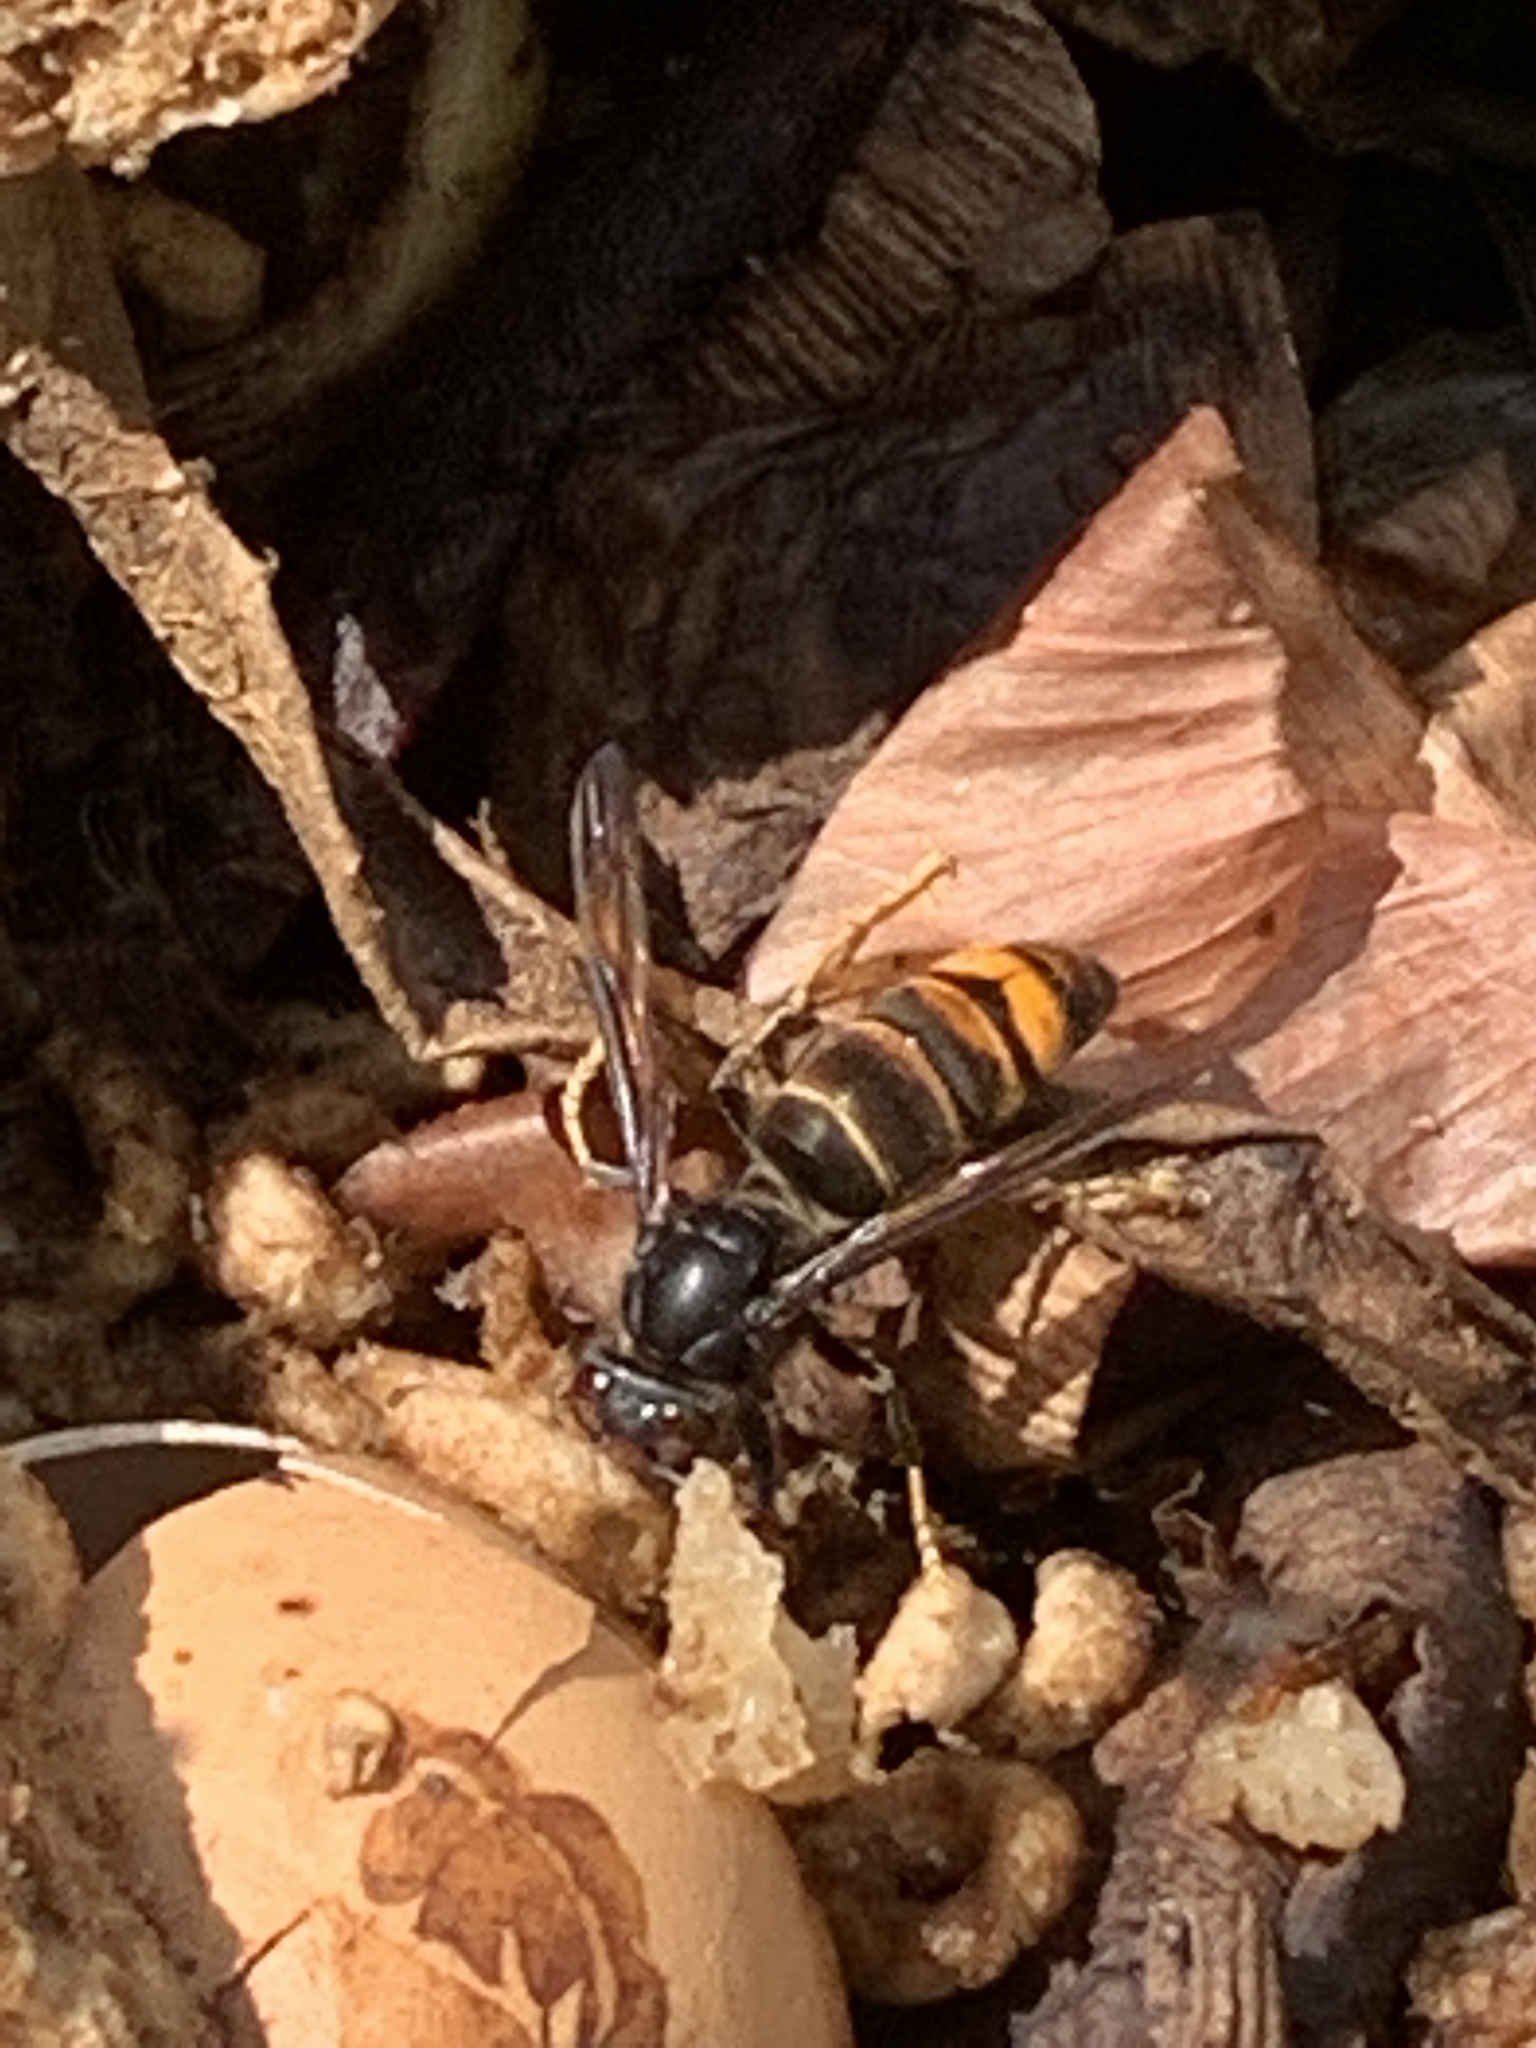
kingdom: Animalia
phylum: Arthropoda
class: Insecta
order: Hymenoptera
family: Vespidae
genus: Vespa
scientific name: Vespa velutina
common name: Asian hornet
